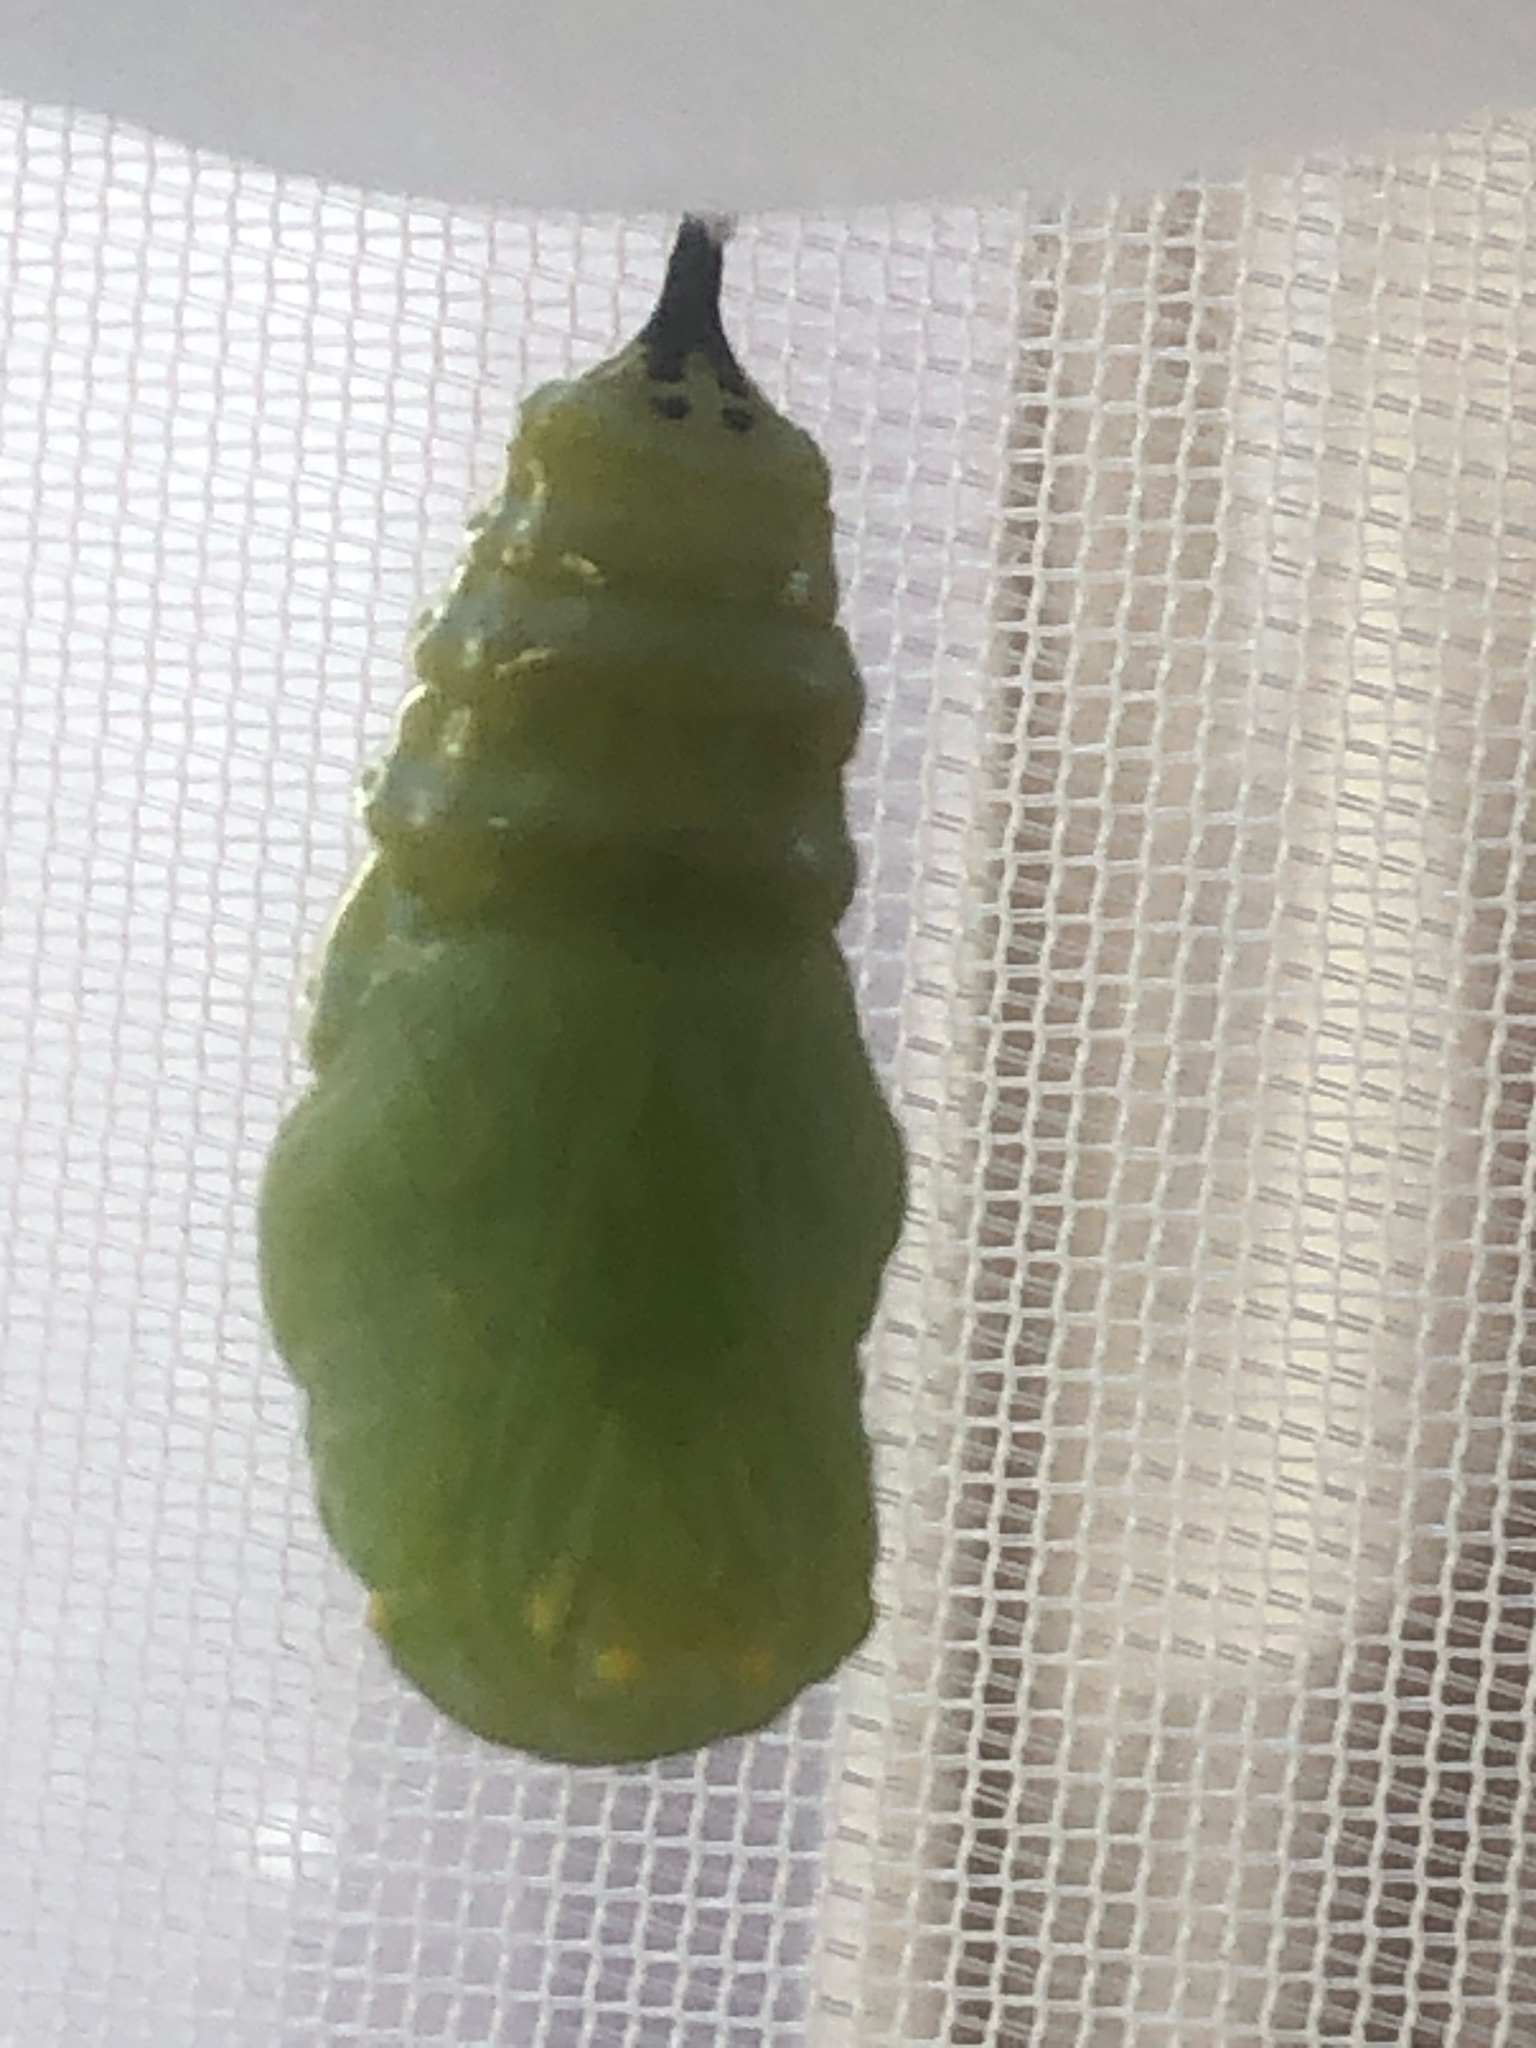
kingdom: Animalia
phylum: Arthropoda
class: Insecta
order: Lepidoptera
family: Nymphalidae
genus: Danaus
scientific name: Danaus plexippus
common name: Monarch
